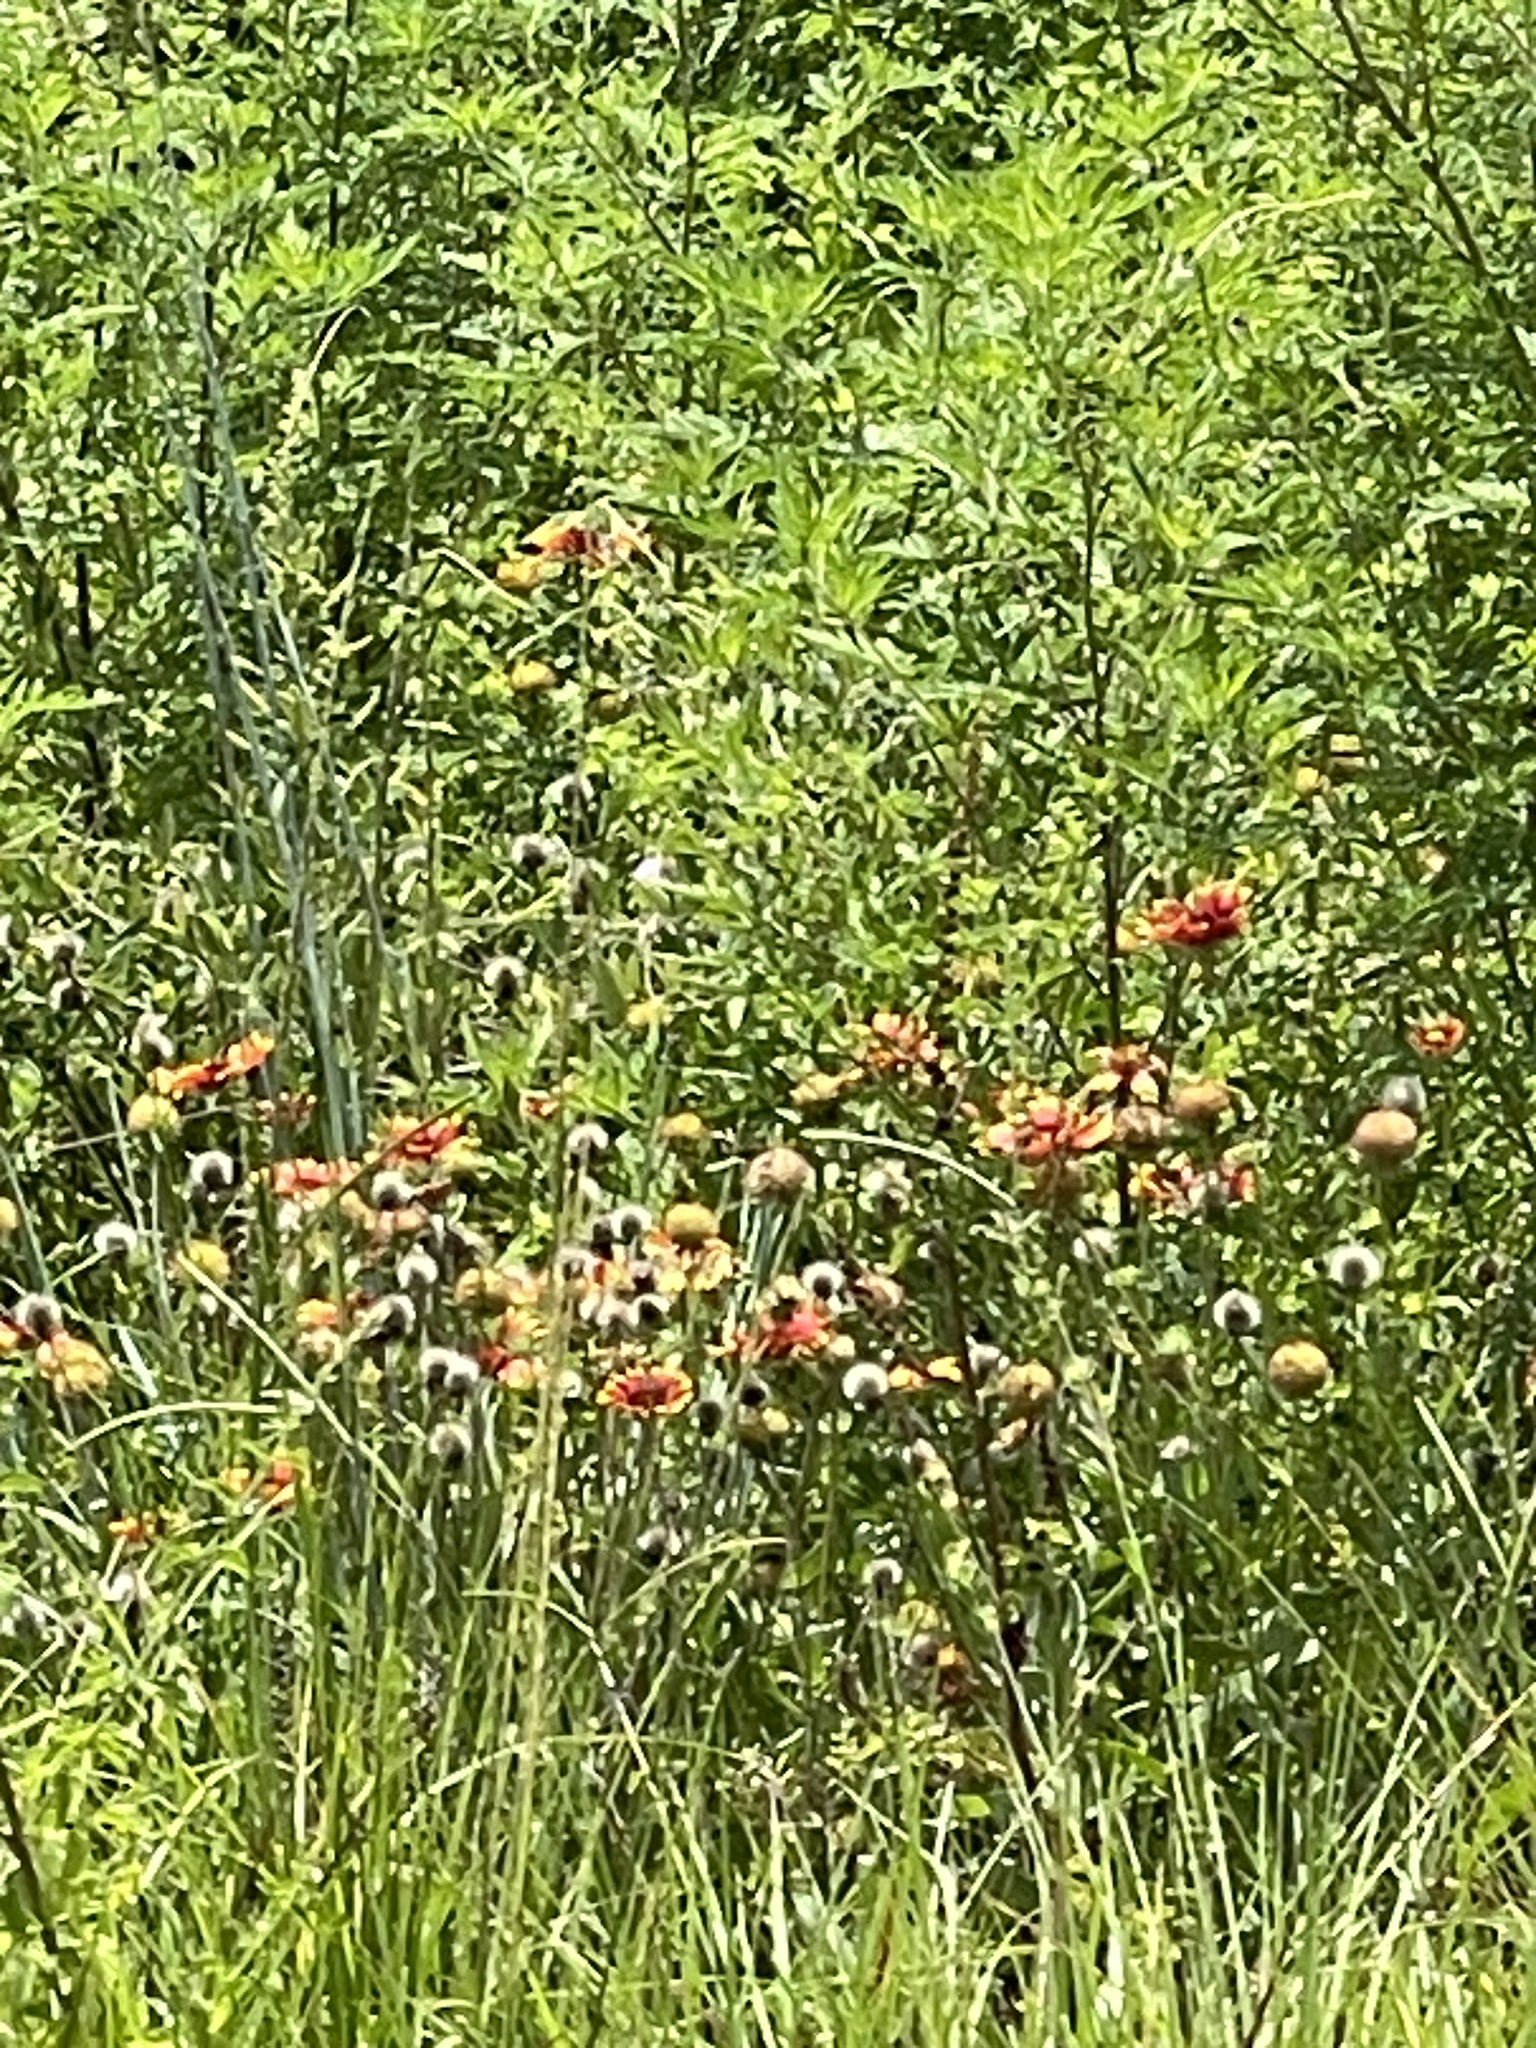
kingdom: Plantae
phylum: Tracheophyta
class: Magnoliopsida
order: Asterales
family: Asteraceae
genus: Gaillardia
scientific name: Gaillardia pulchella
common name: Firewheel
